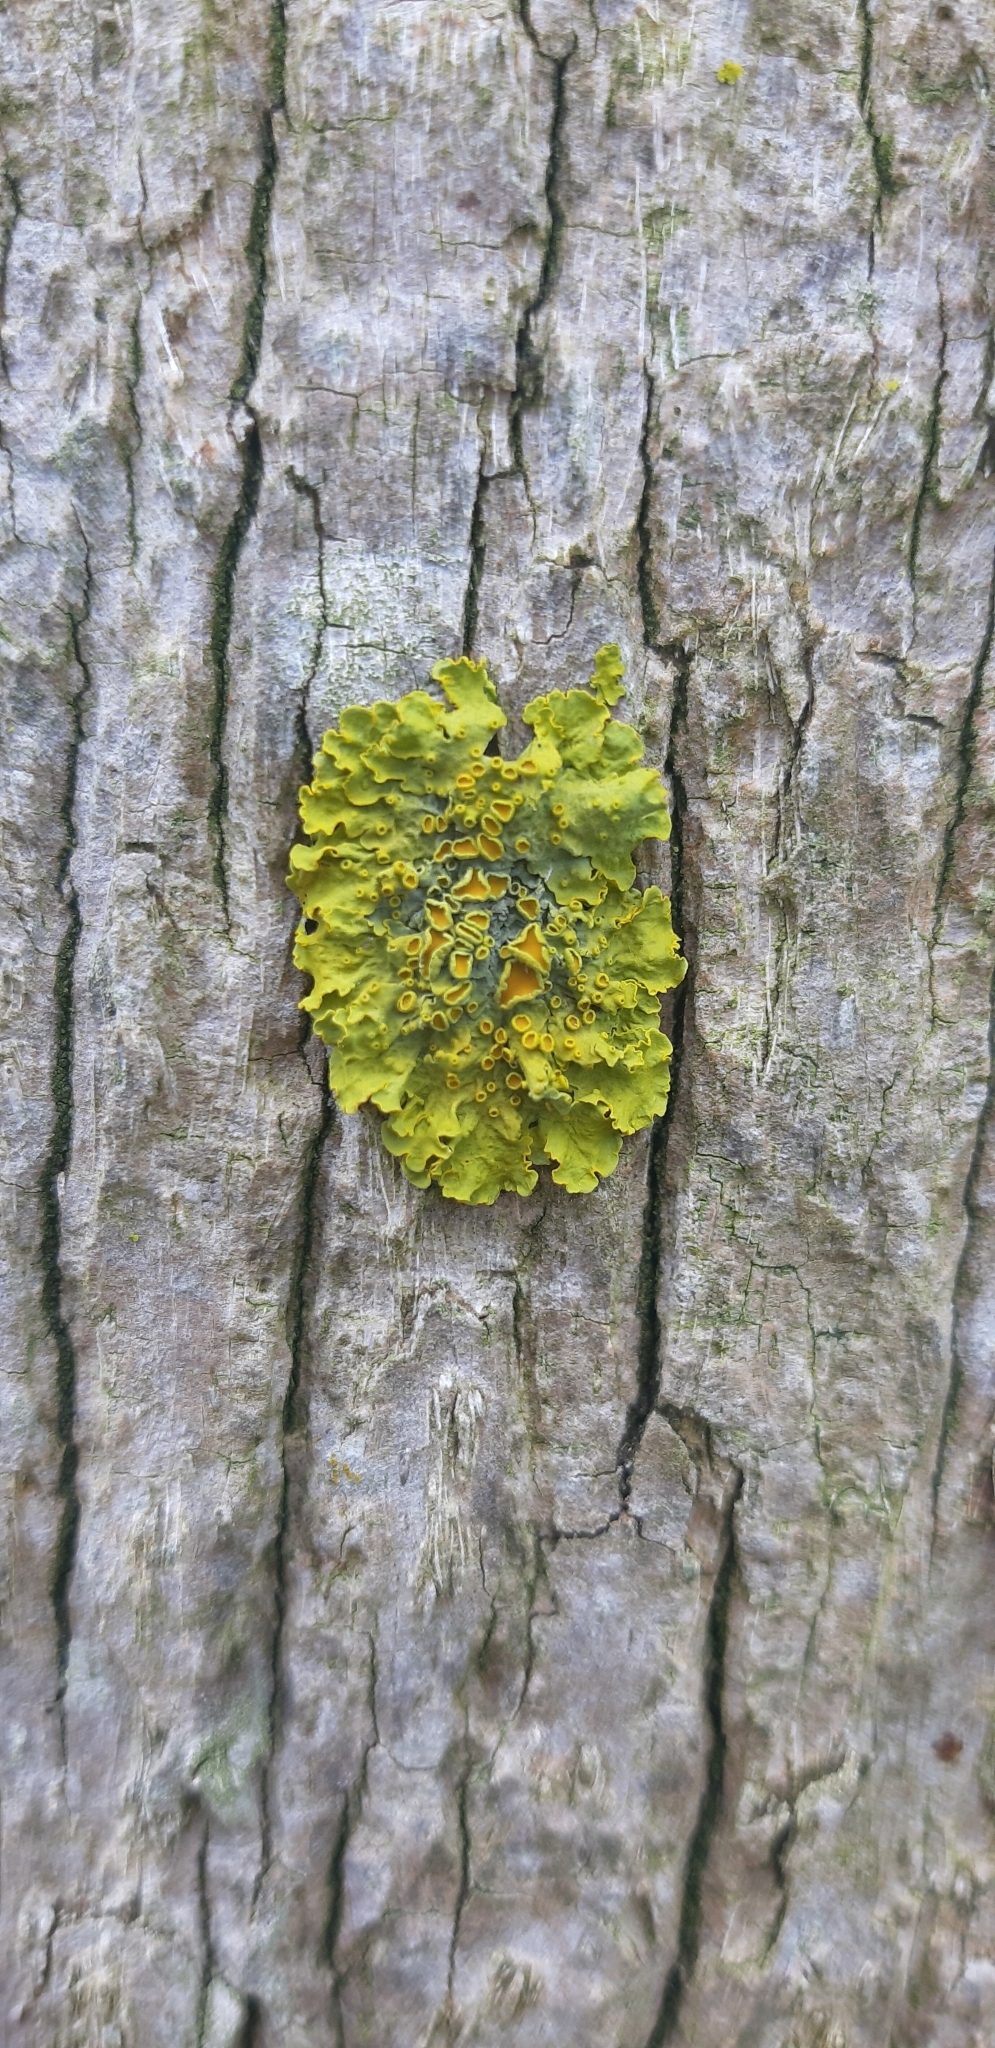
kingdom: Fungi
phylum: Ascomycota
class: Lecanoromycetes
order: Teloschistales
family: Teloschistaceae
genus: Xanthoria
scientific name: Xanthoria parietina
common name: Common orange lichen
